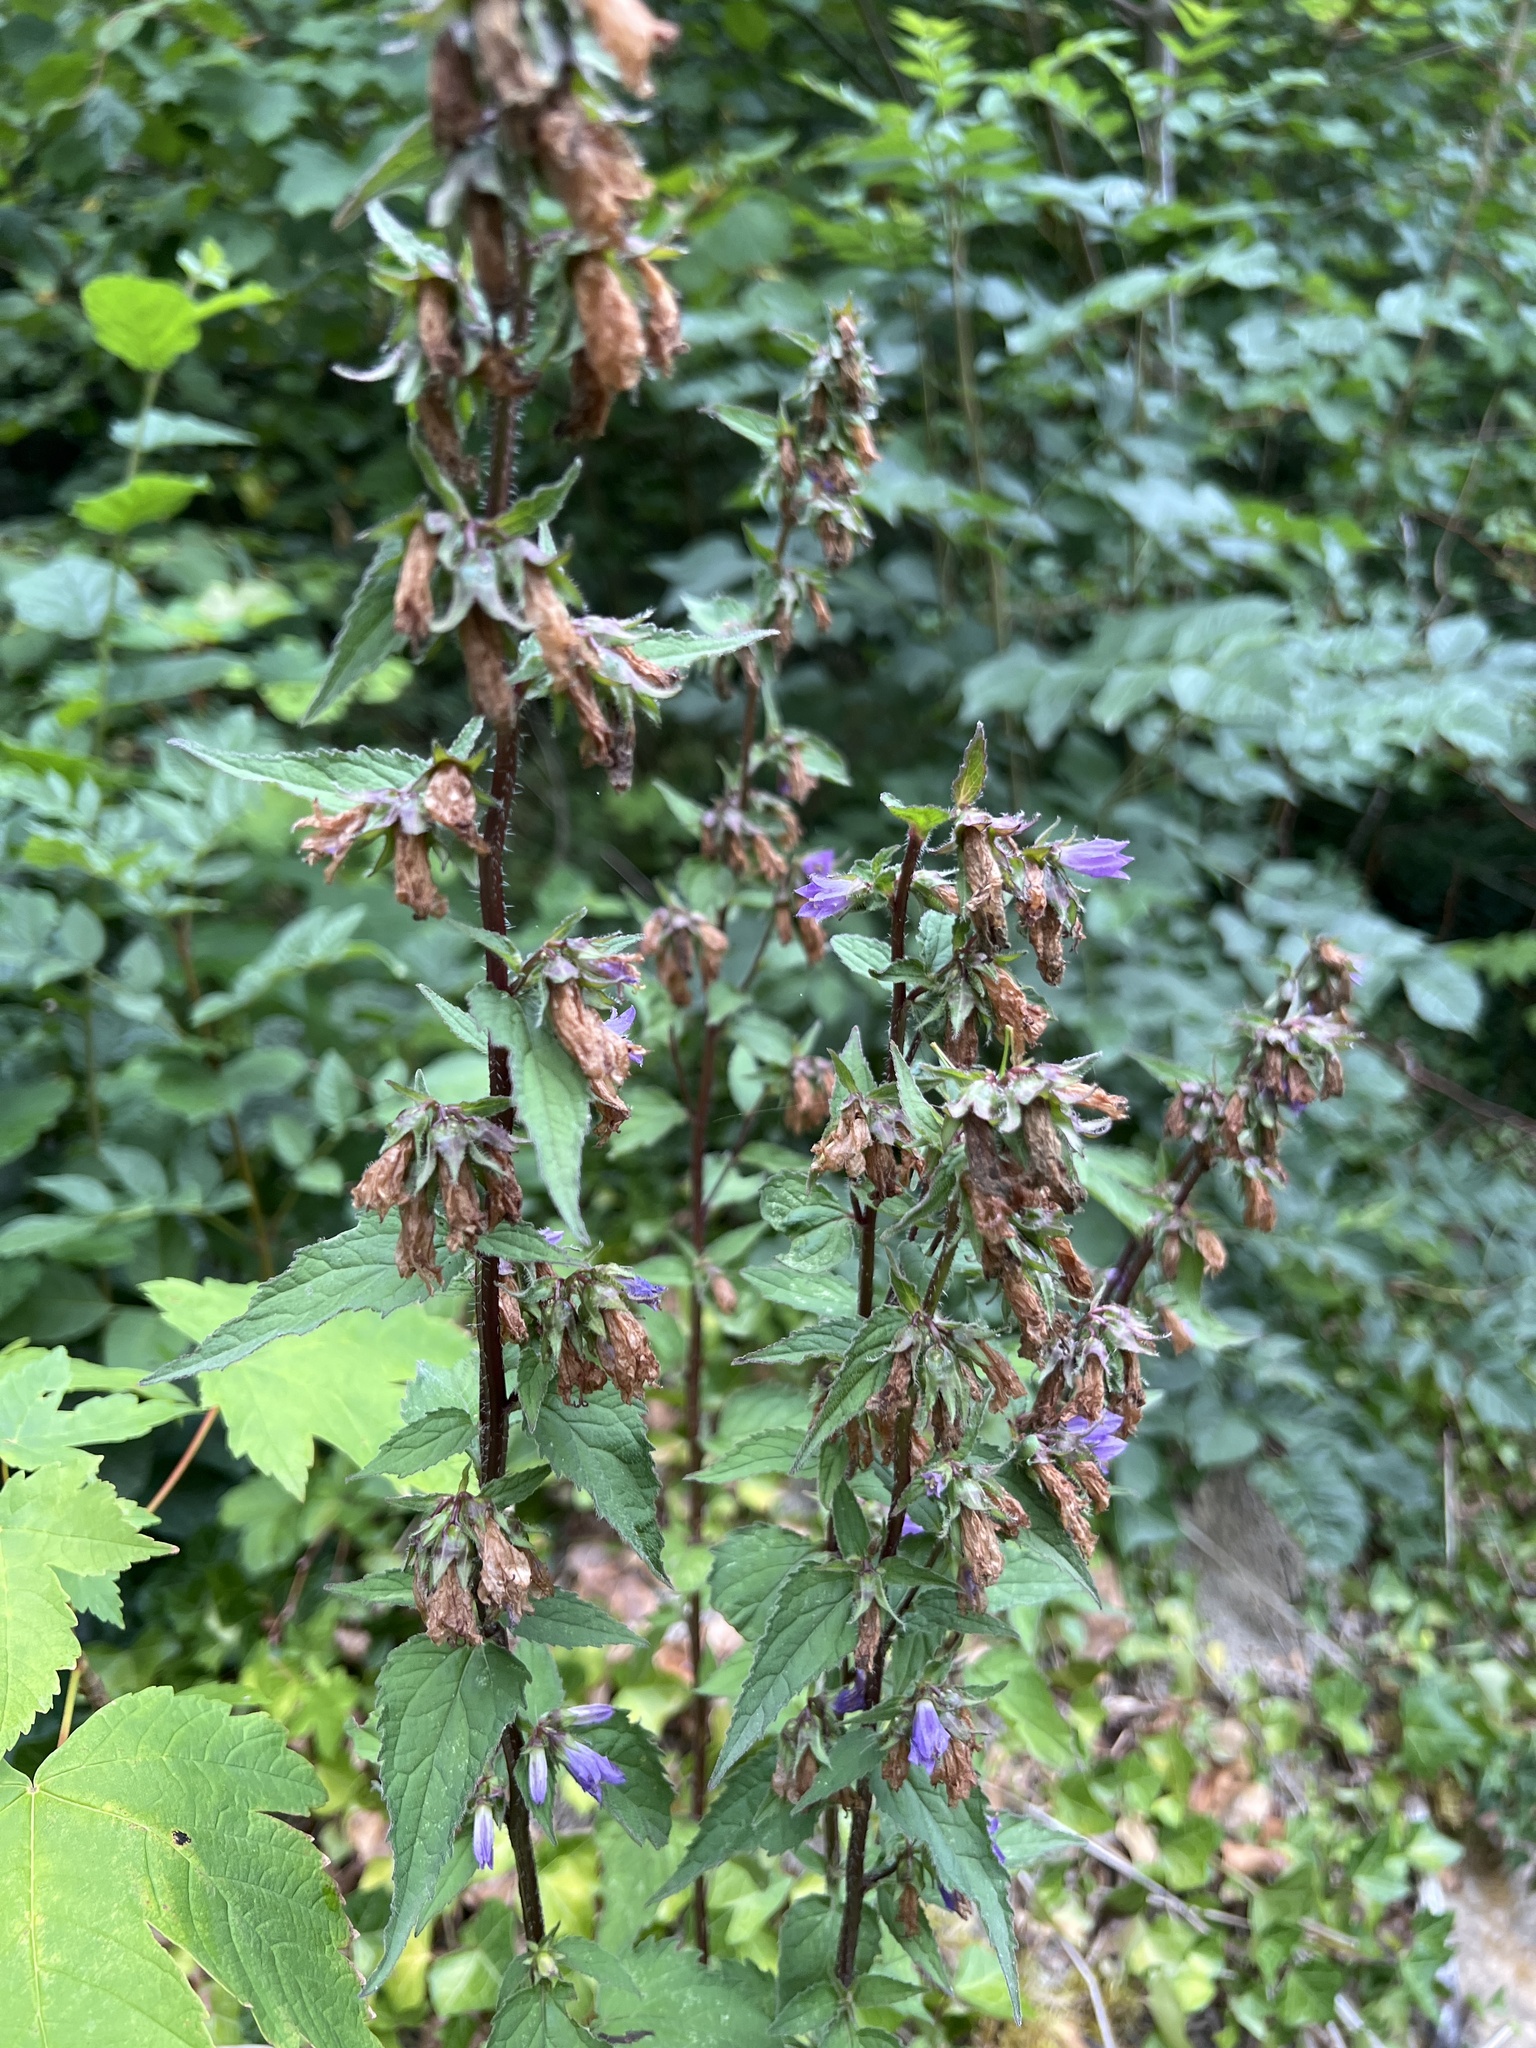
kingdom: Plantae
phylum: Tracheophyta
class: Magnoliopsida
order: Asterales
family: Campanulaceae
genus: Campanula
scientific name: Campanula trachelium
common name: Nettle-leaved bellflower
